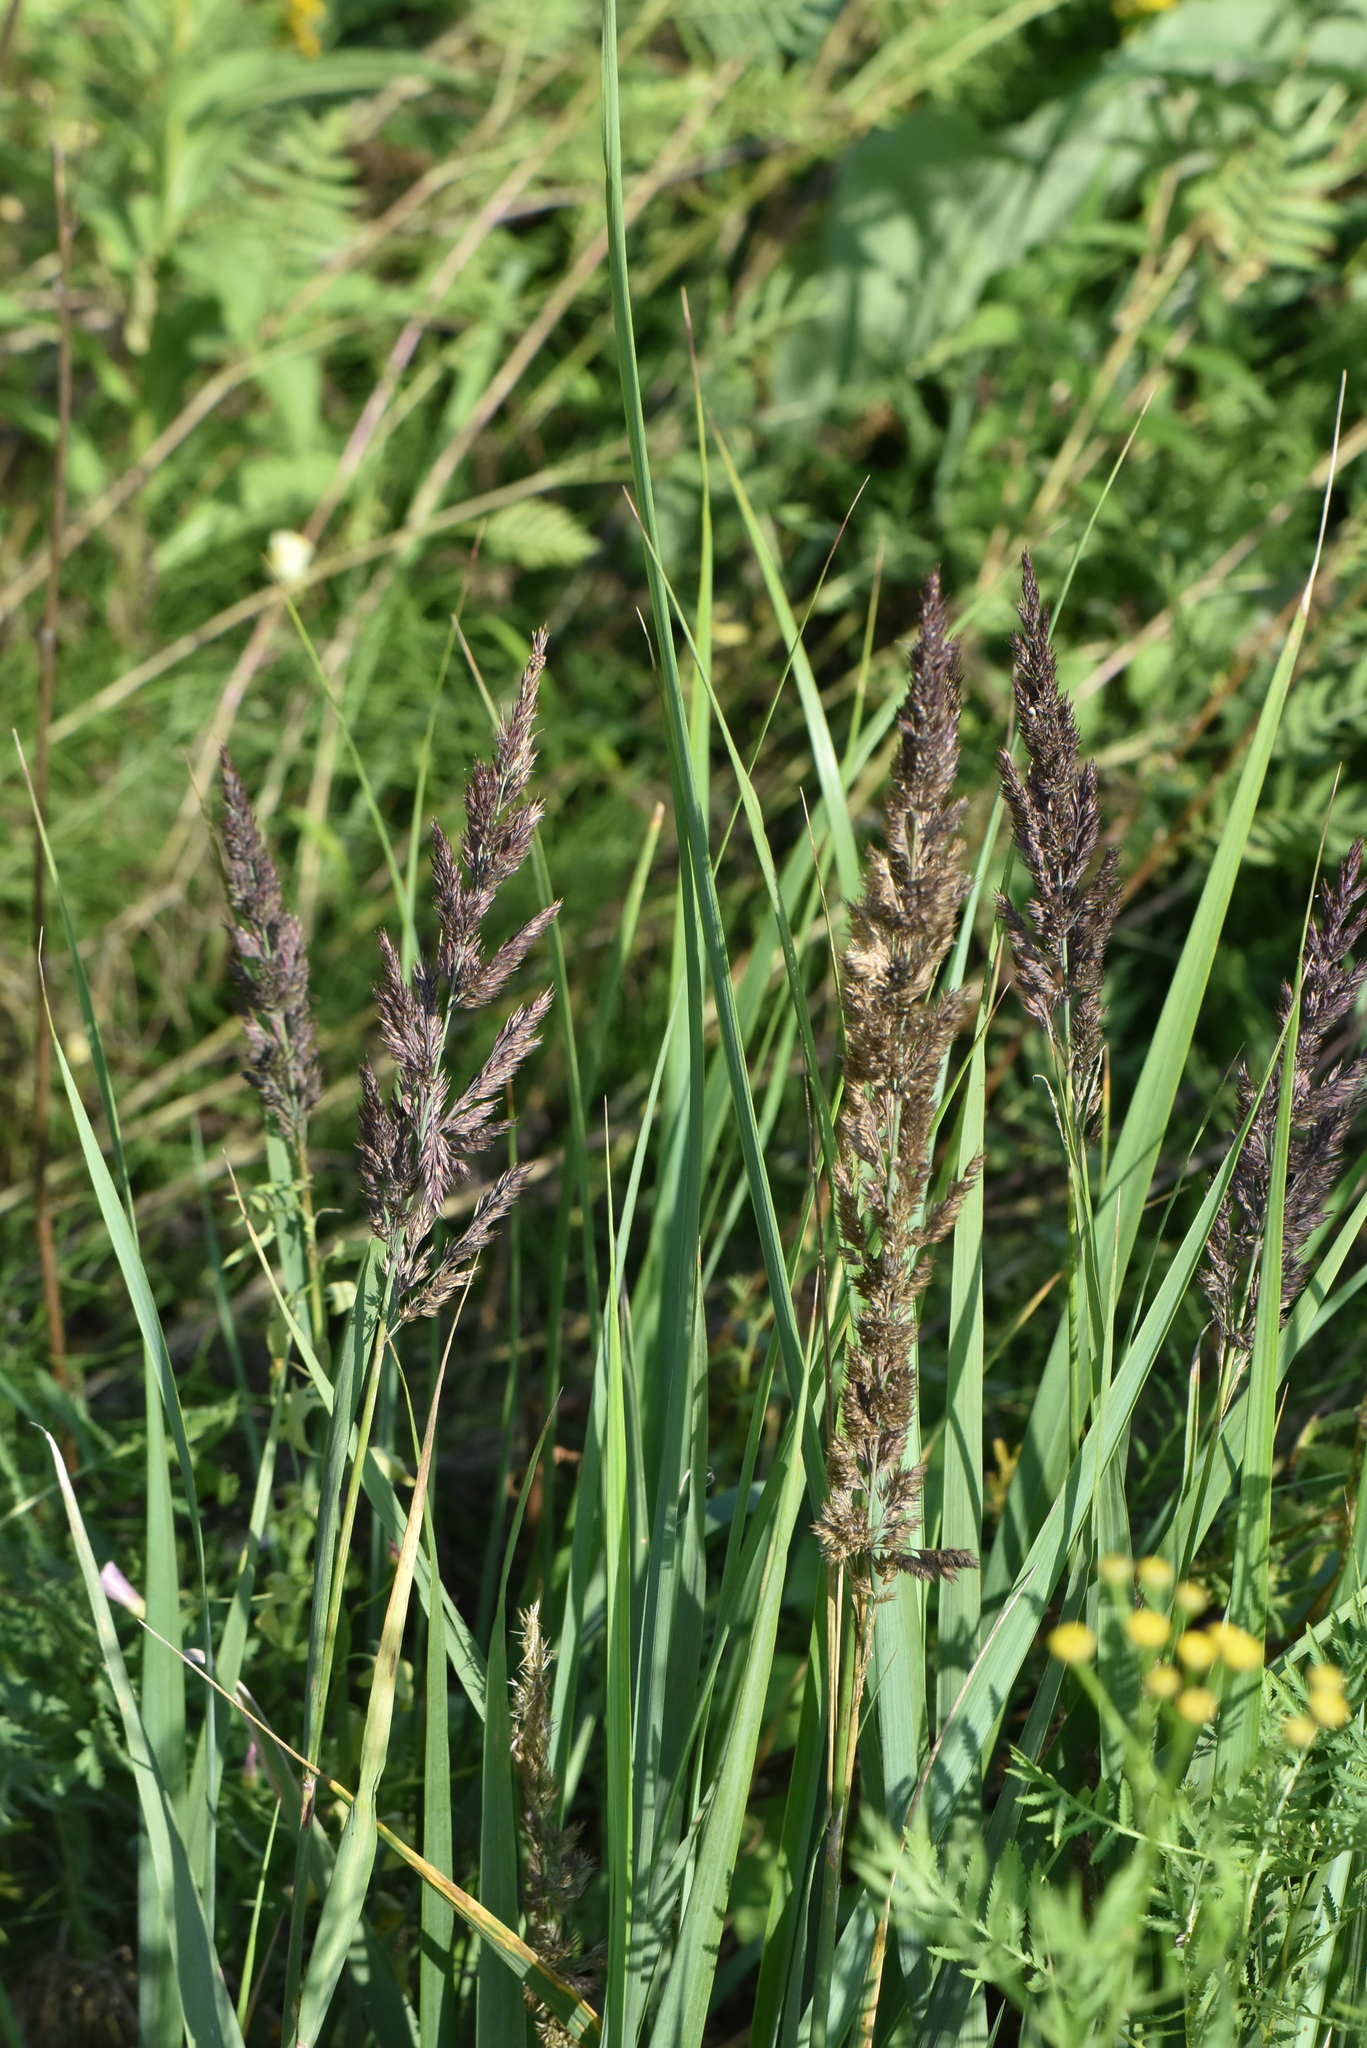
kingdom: Plantae
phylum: Tracheophyta
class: Liliopsida
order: Poales
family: Poaceae
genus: Calamagrostis
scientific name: Calamagrostis epigejos
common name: Wood small-reed
